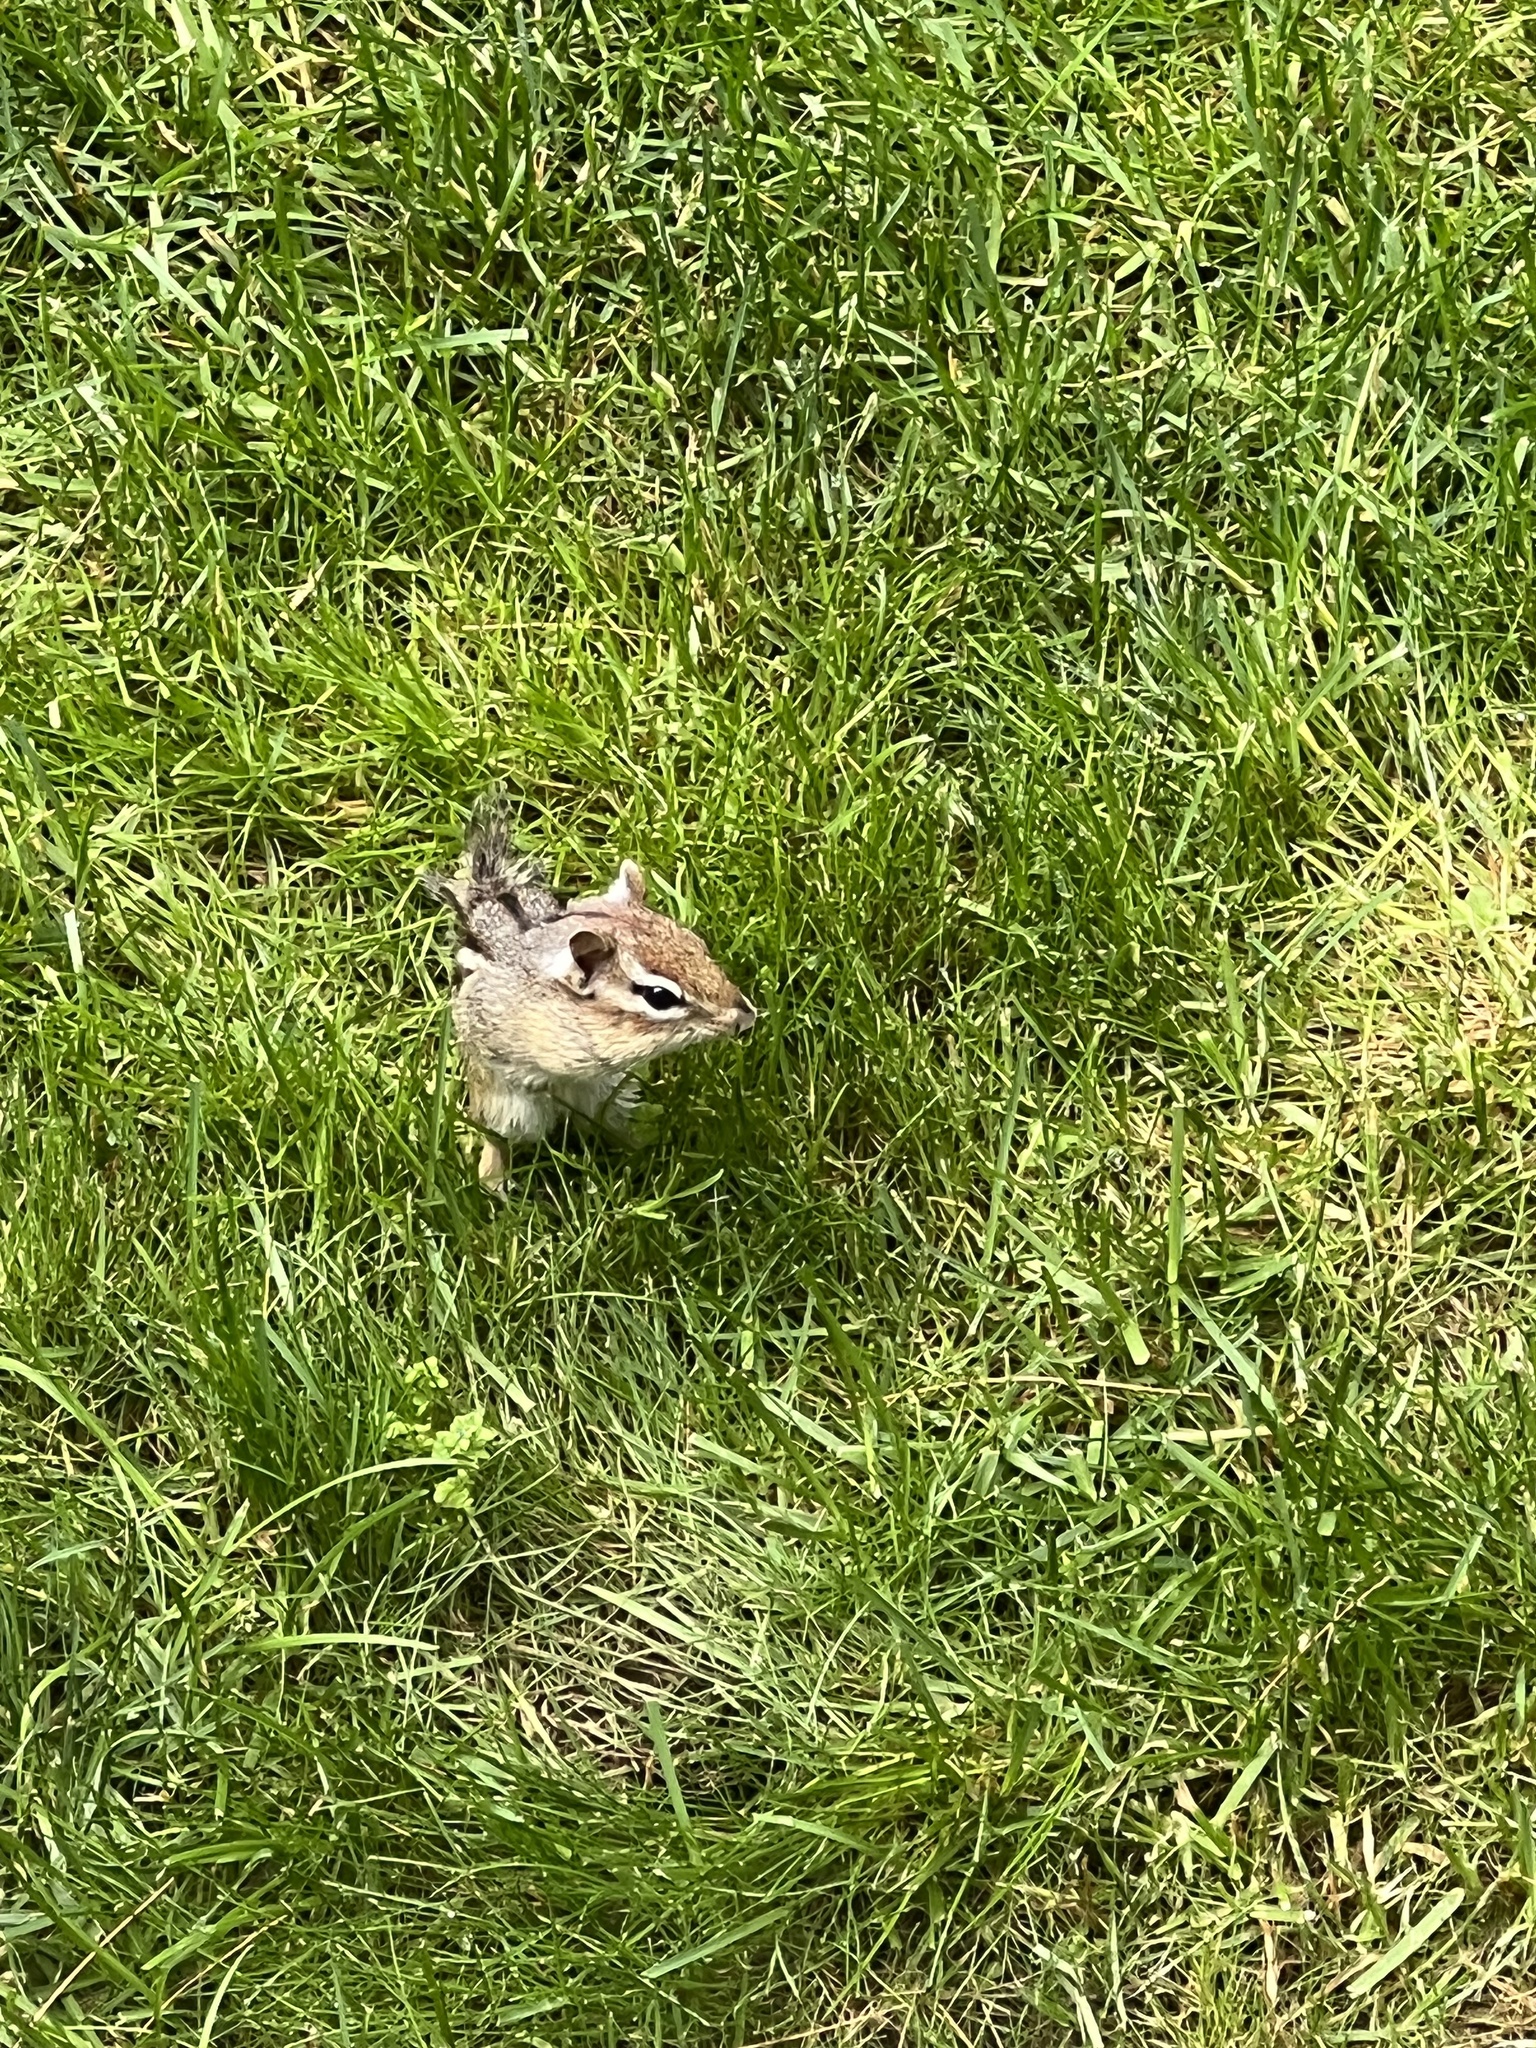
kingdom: Animalia
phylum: Chordata
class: Mammalia
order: Rodentia
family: Sciuridae
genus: Tamias
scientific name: Tamias striatus
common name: Eastern chipmunk
